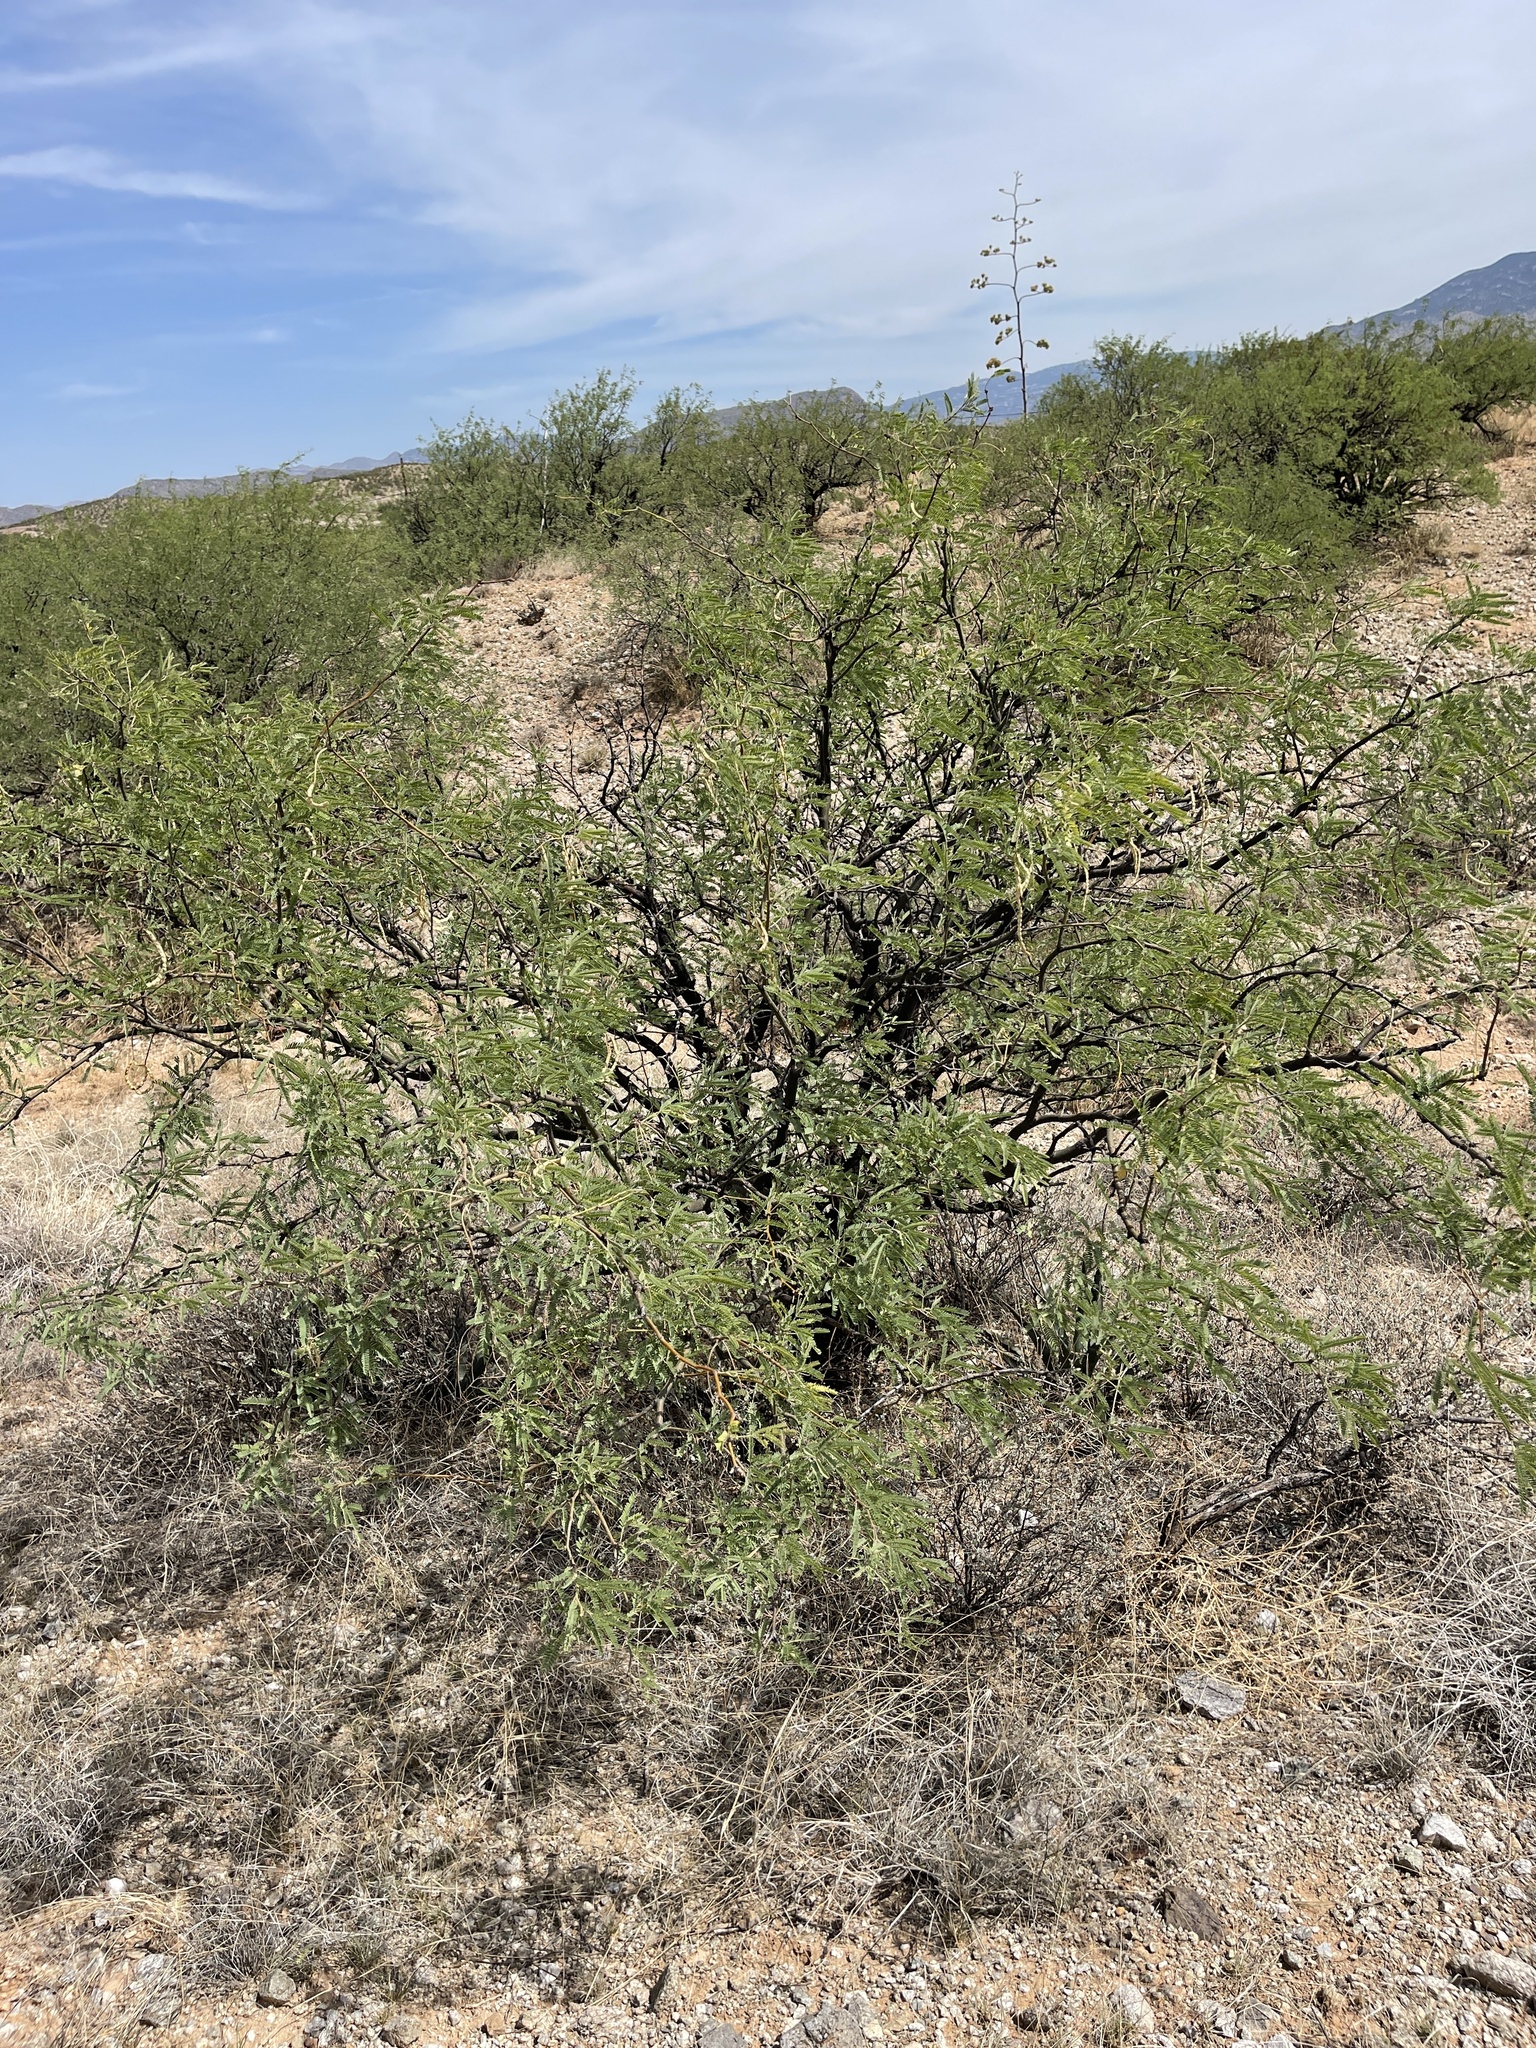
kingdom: Plantae
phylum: Tracheophyta
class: Magnoliopsida
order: Fabales
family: Fabaceae
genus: Prosopis
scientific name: Prosopis glandulosa
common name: Honey mesquite
